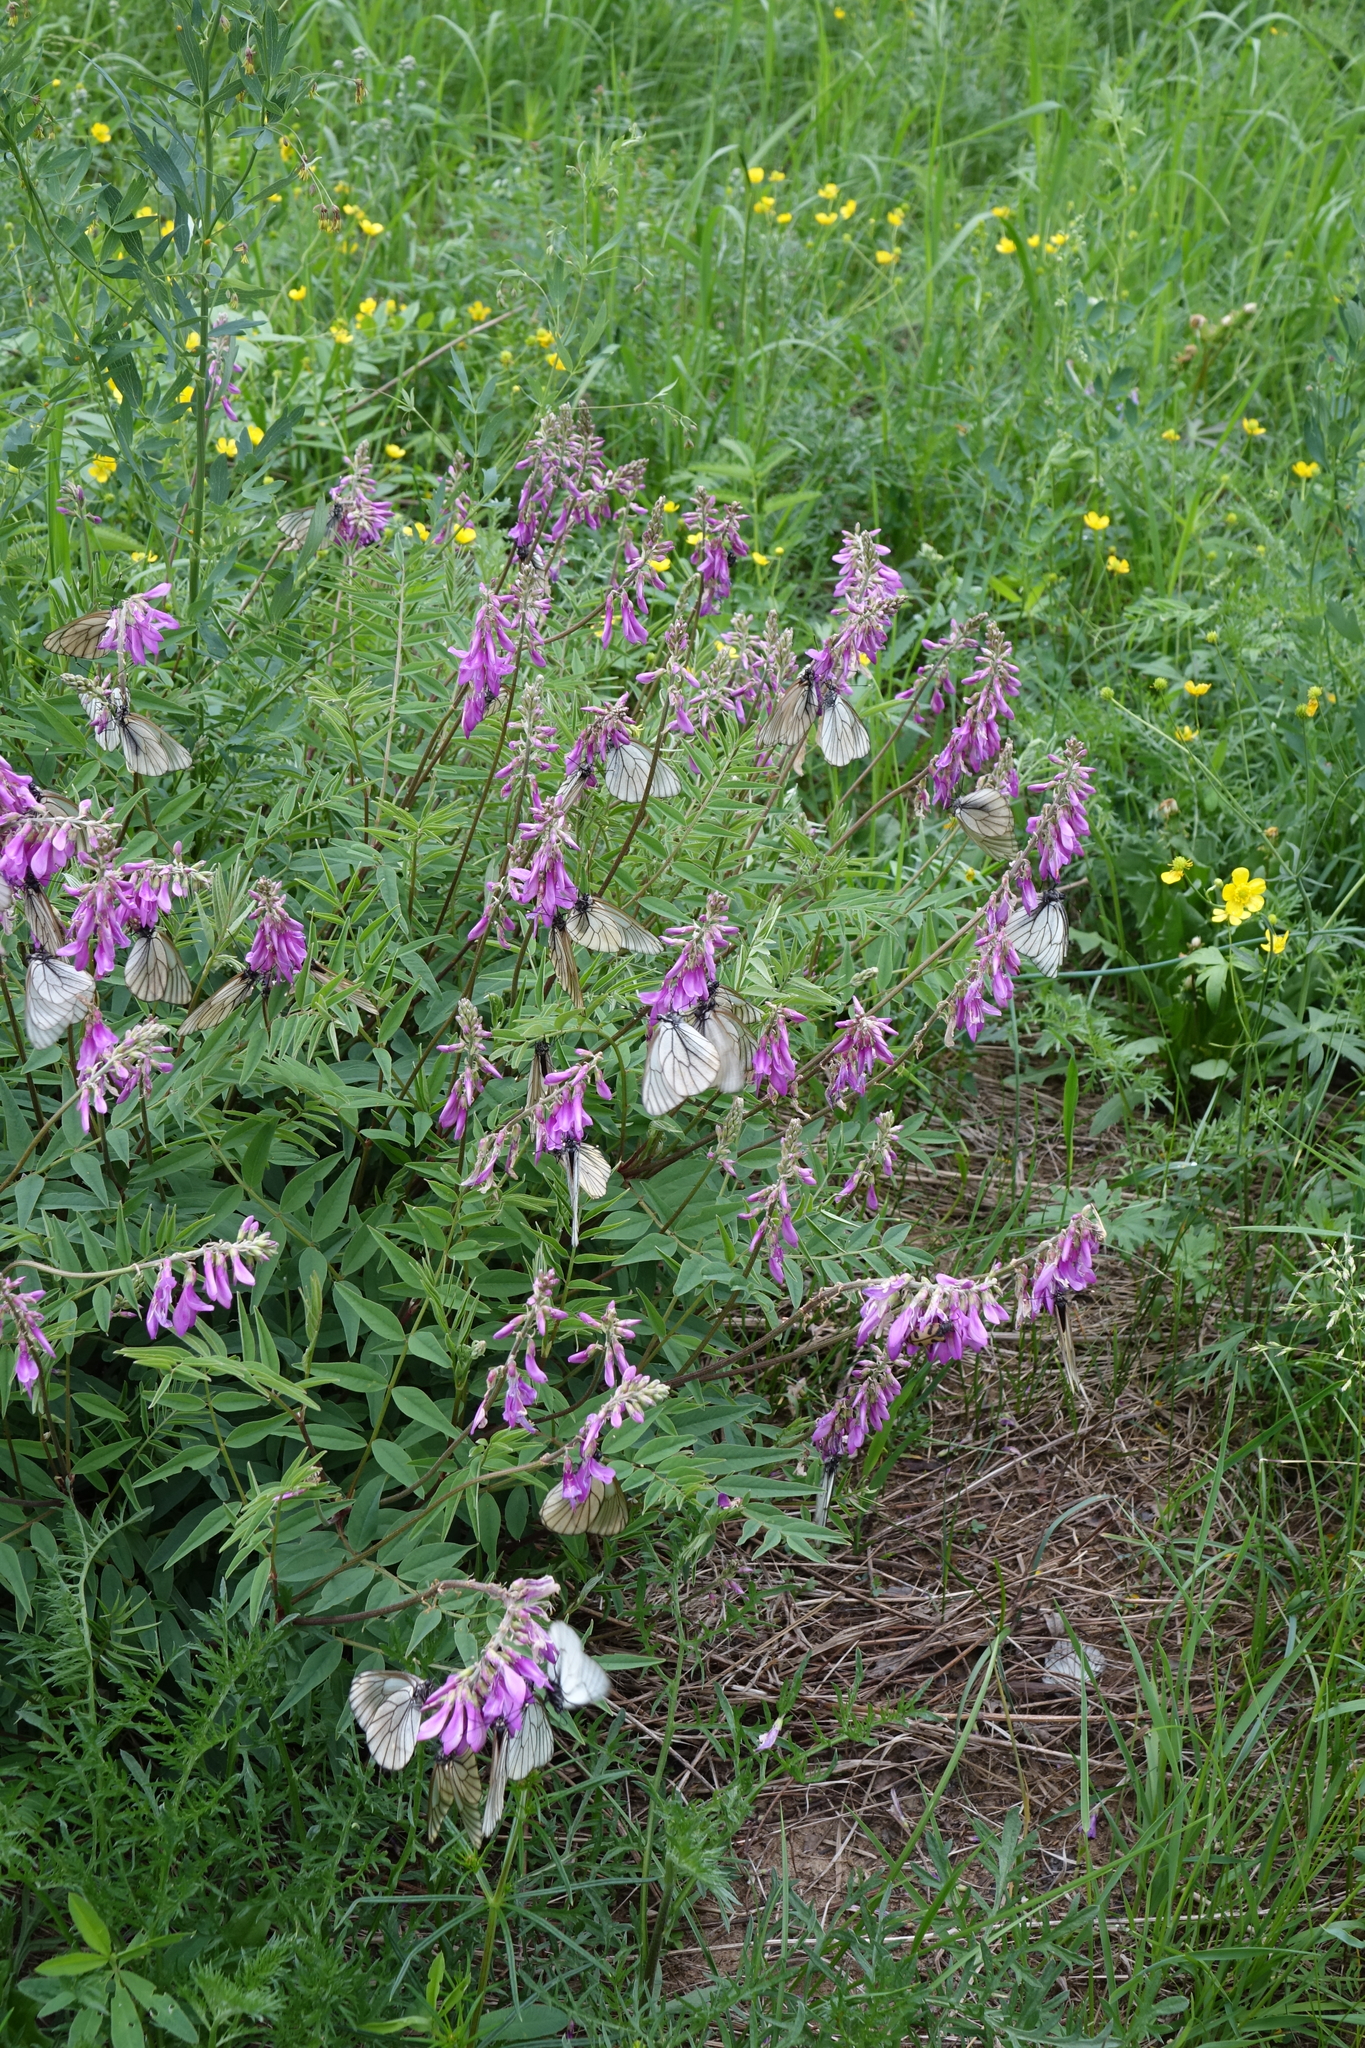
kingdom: Animalia
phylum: Arthropoda
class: Insecta
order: Lepidoptera
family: Pieridae
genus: Aporia
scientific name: Aporia crataegi
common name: Black-veined white
